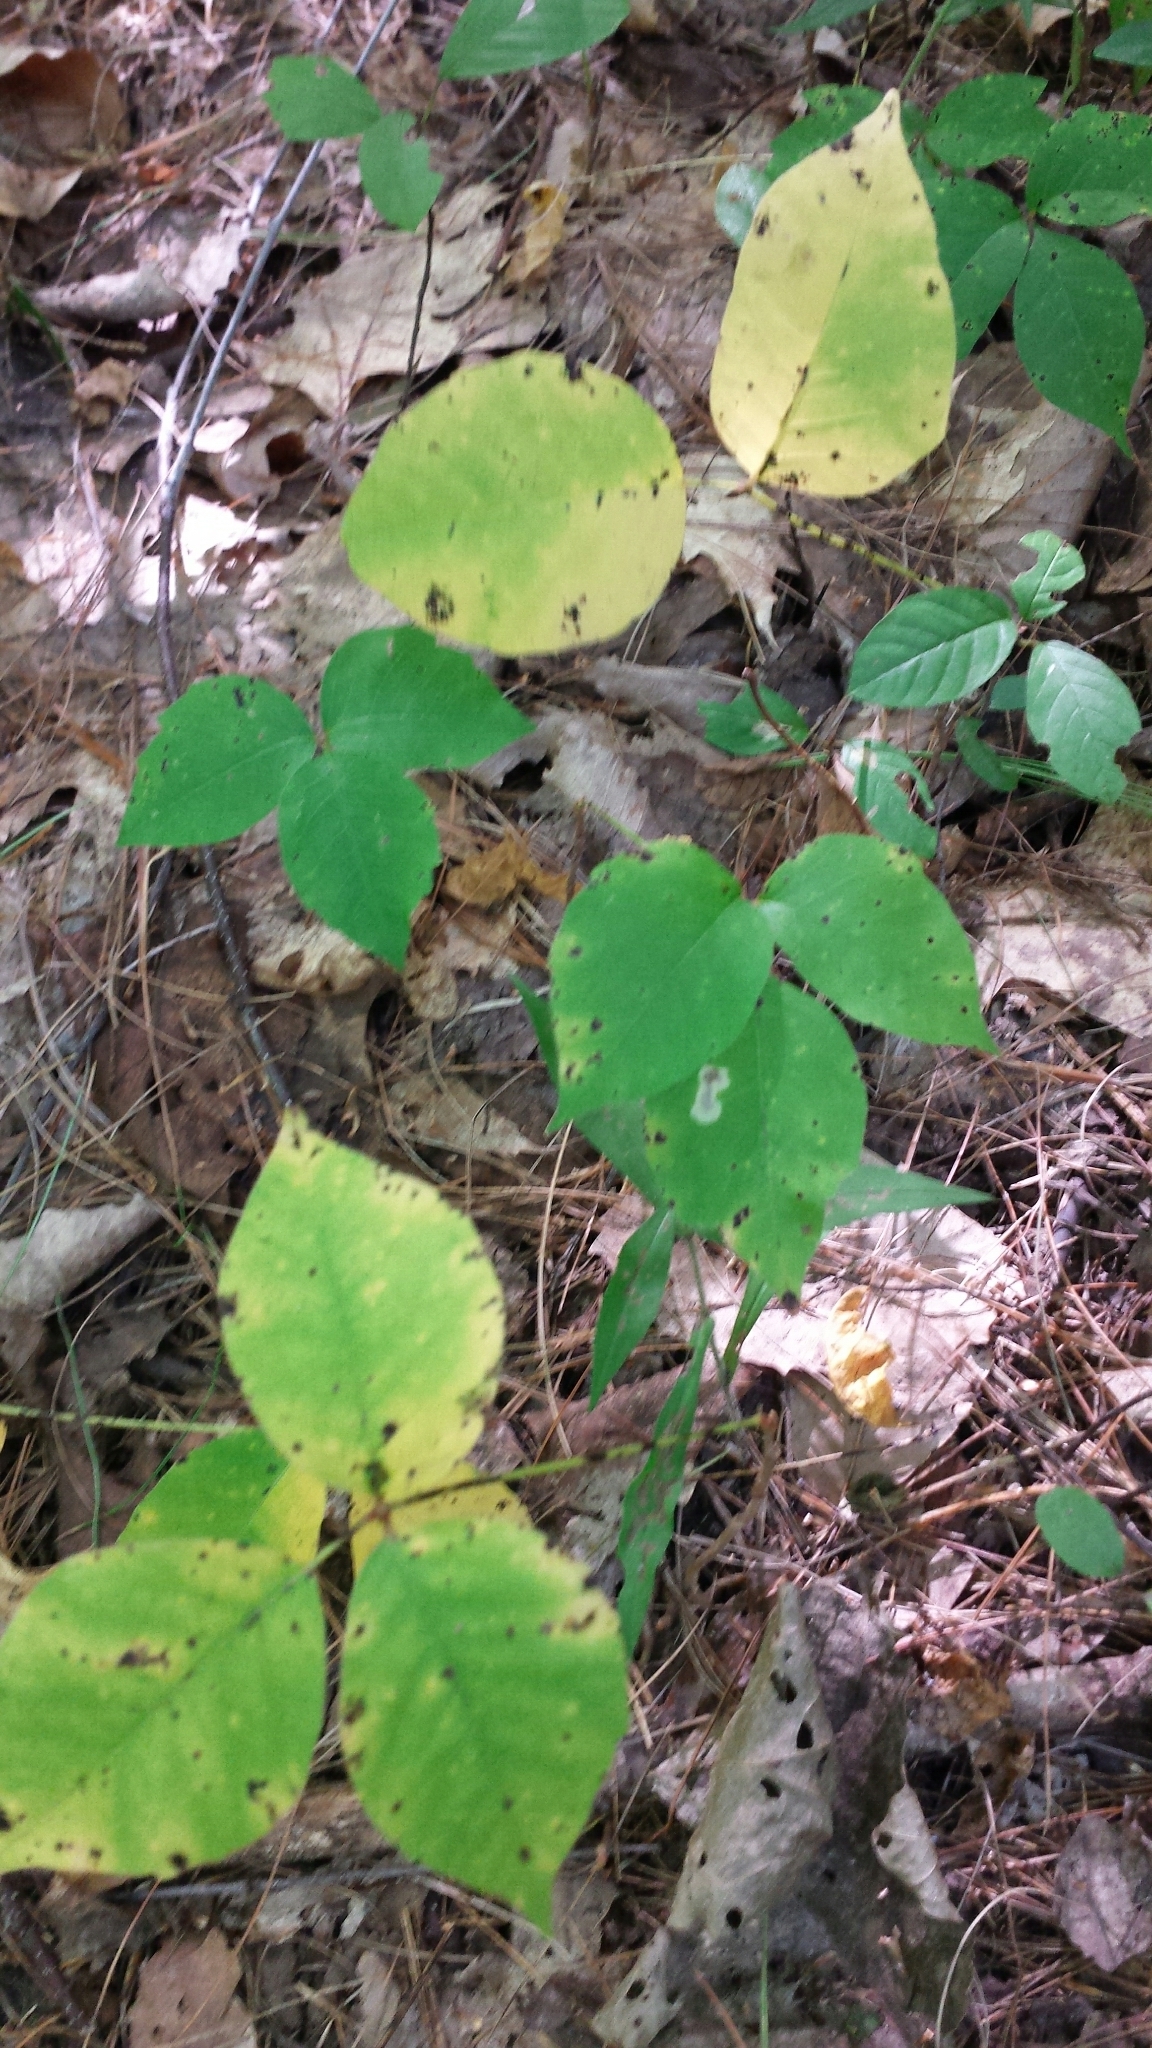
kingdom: Plantae
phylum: Tracheophyta
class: Magnoliopsida
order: Sapindales
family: Anacardiaceae
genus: Toxicodendron
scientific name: Toxicodendron radicans
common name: Poison ivy
